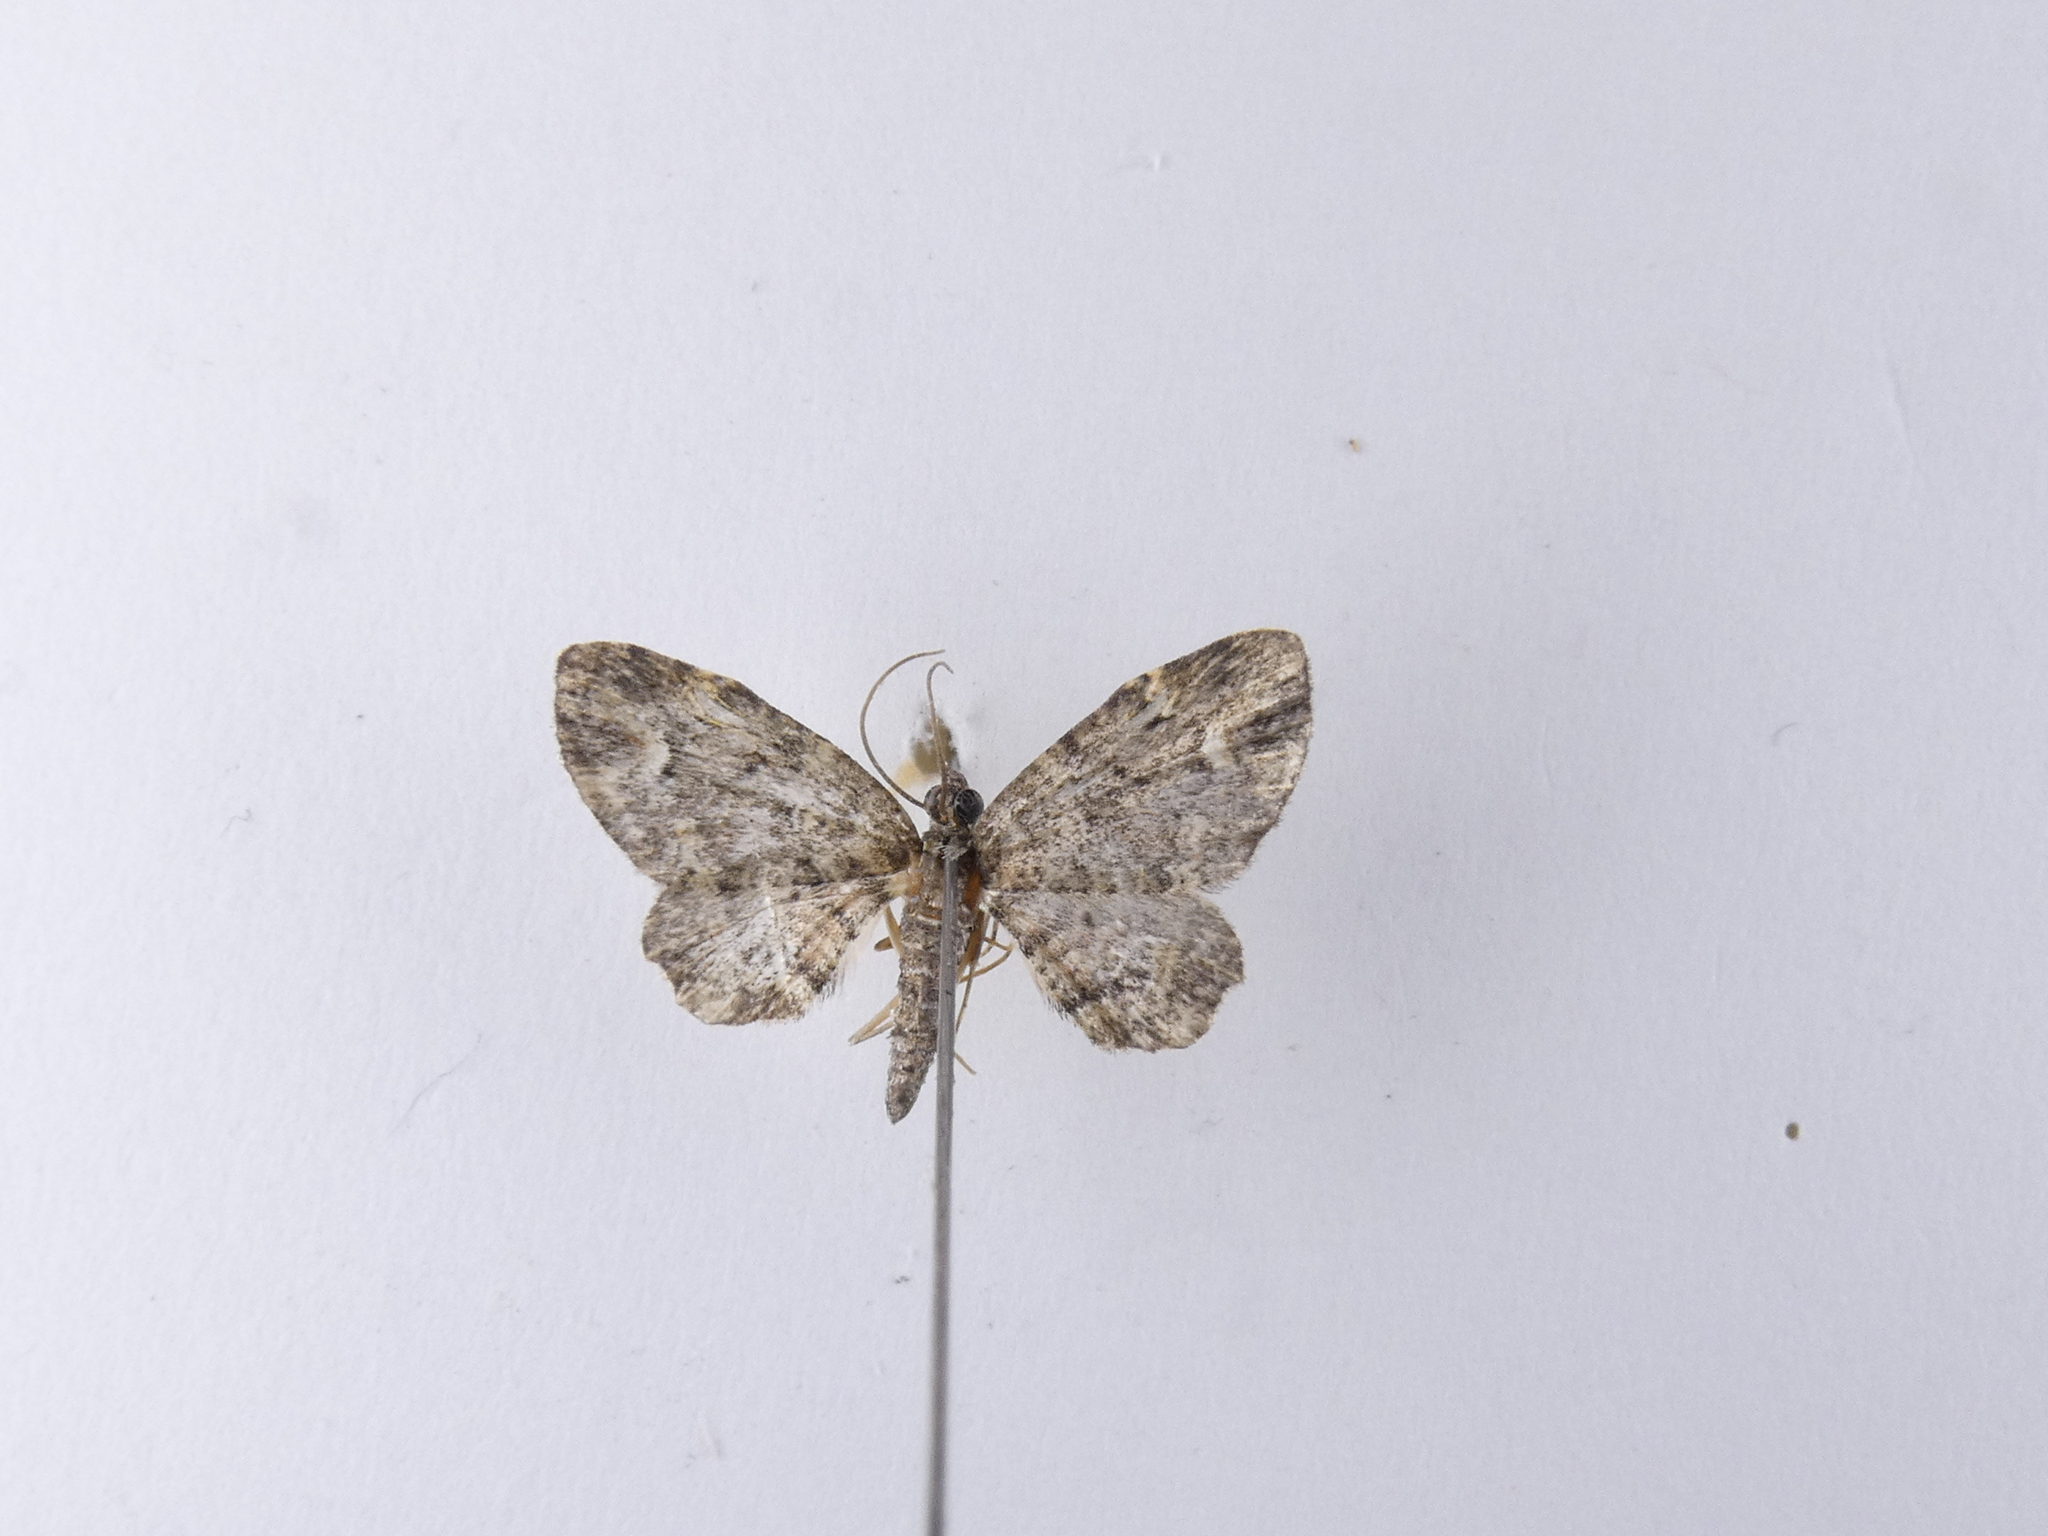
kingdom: Animalia
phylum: Arthropoda
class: Insecta
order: Lepidoptera
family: Geometridae
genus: Pasiphilodes
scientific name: Pasiphilodes testulata
